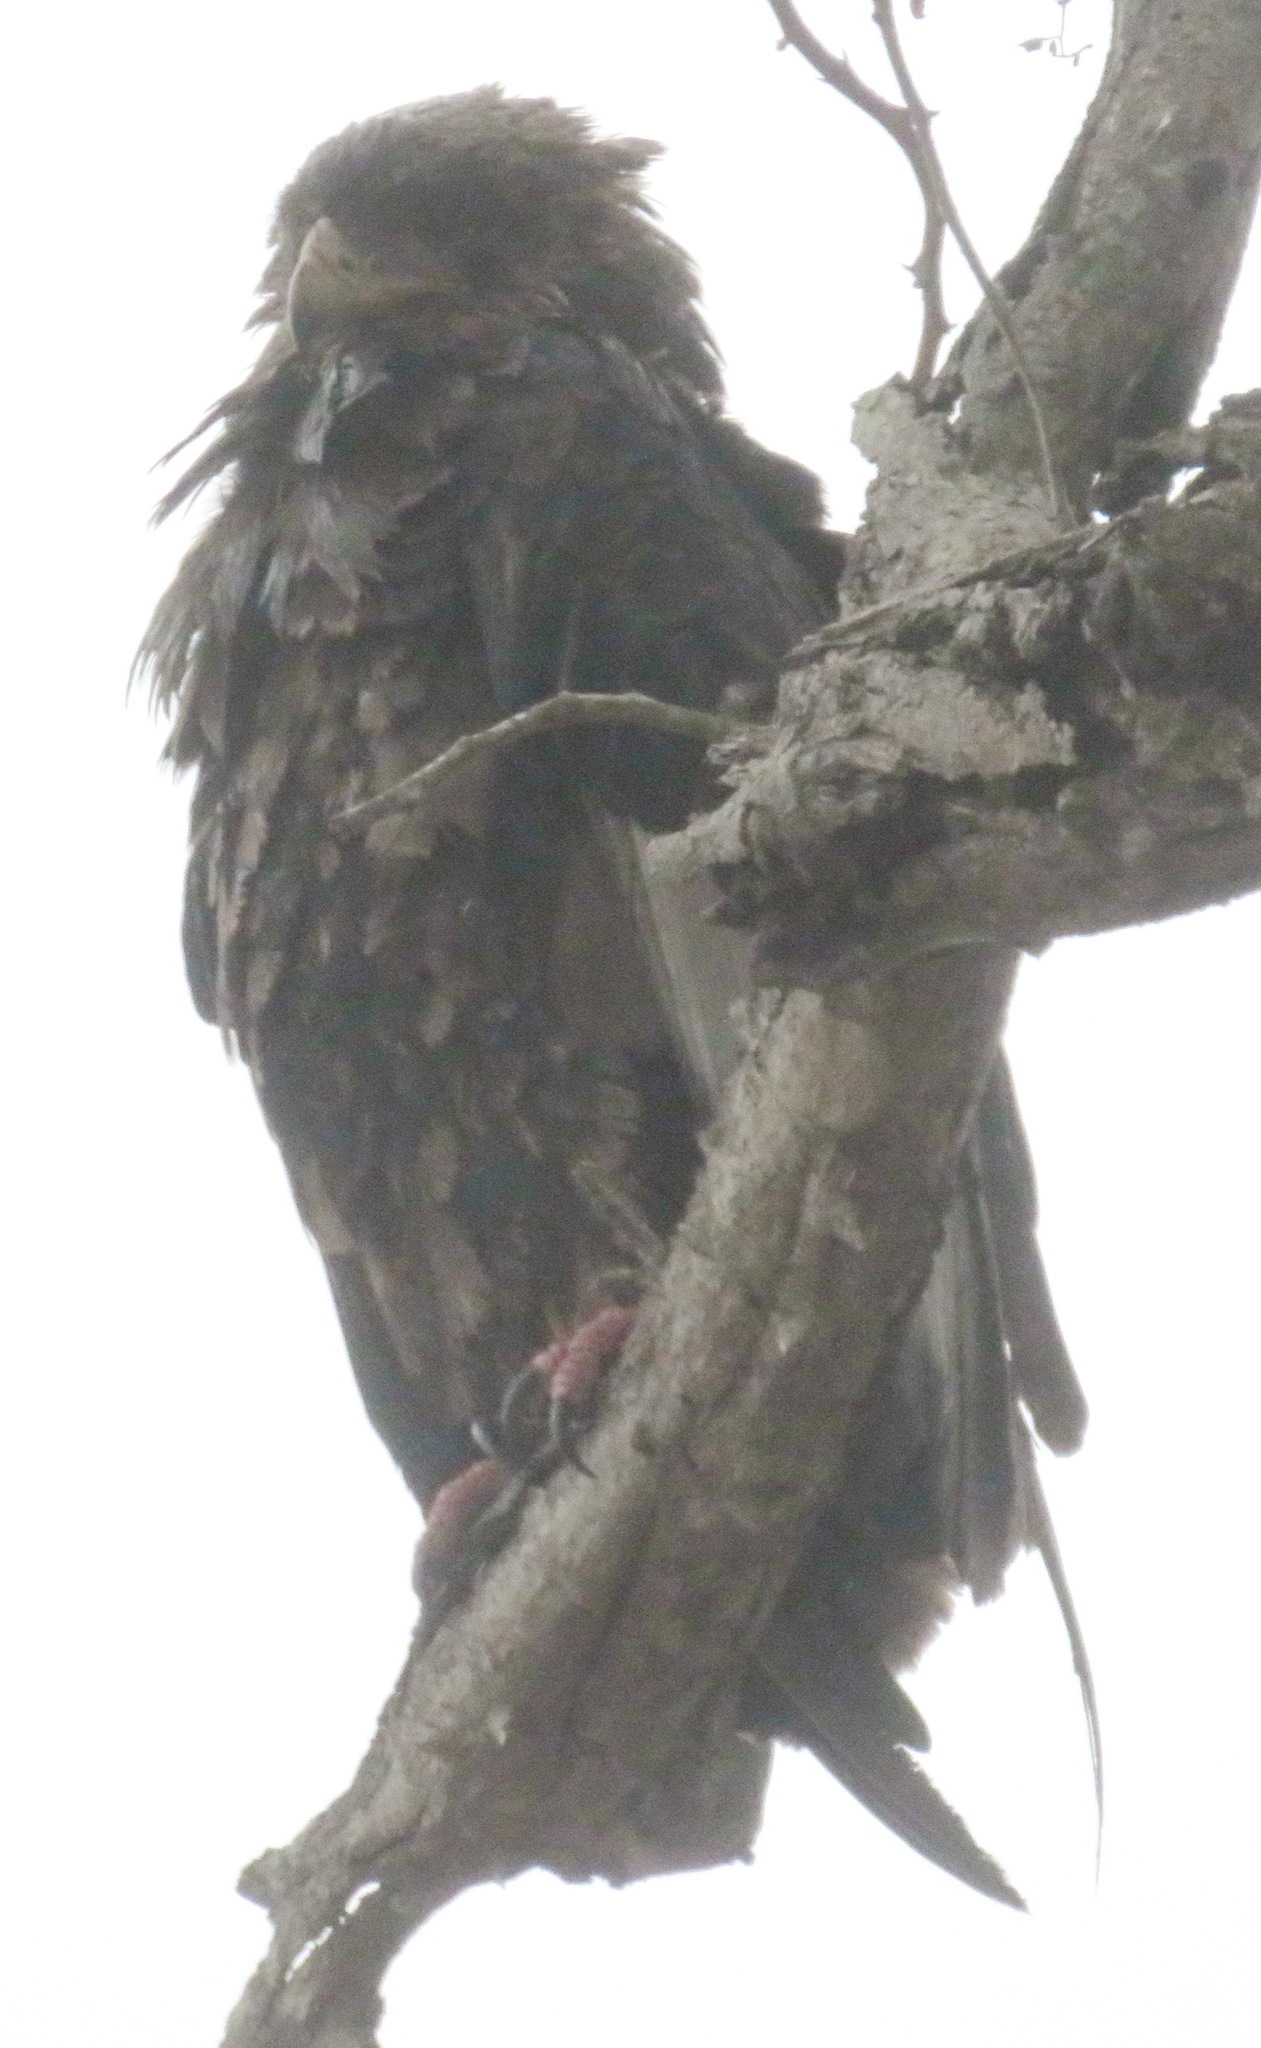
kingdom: Animalia
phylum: Chordata
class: Aves
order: Accipitriformes
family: Accipitridae
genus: Terathopius
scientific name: Terathopius ecaudatus
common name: Bateleur
